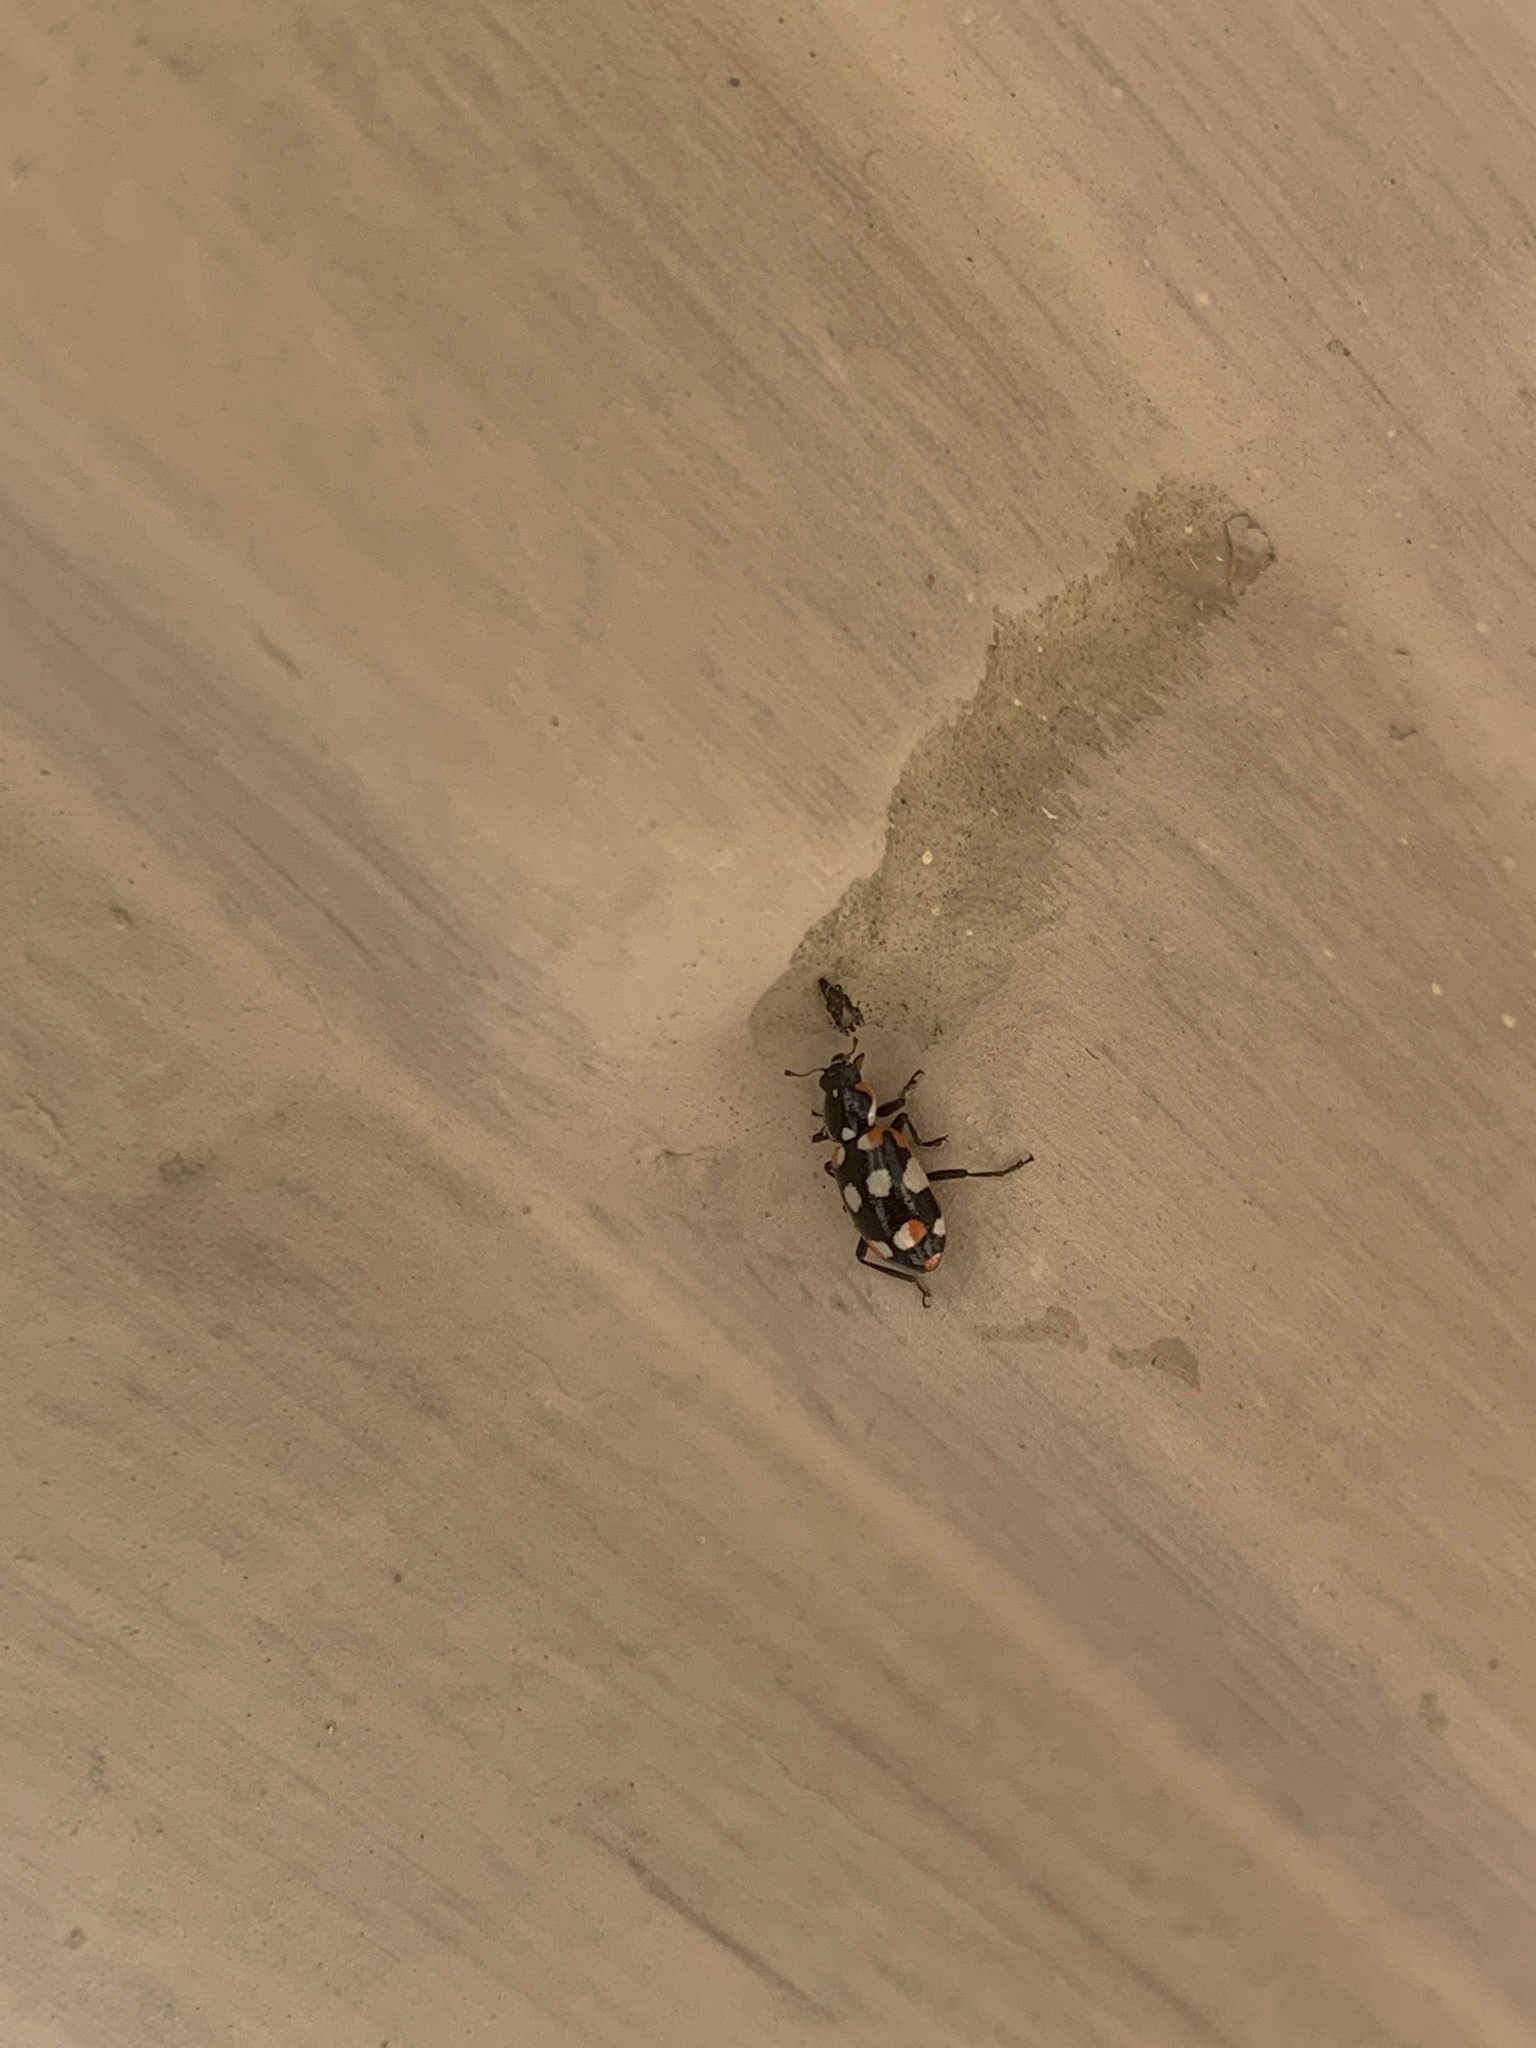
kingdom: Animalia
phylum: Arthropoda
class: Insecta
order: Coleoptera
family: Coccinellidae
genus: Eriopis
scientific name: Eriopis connexa
